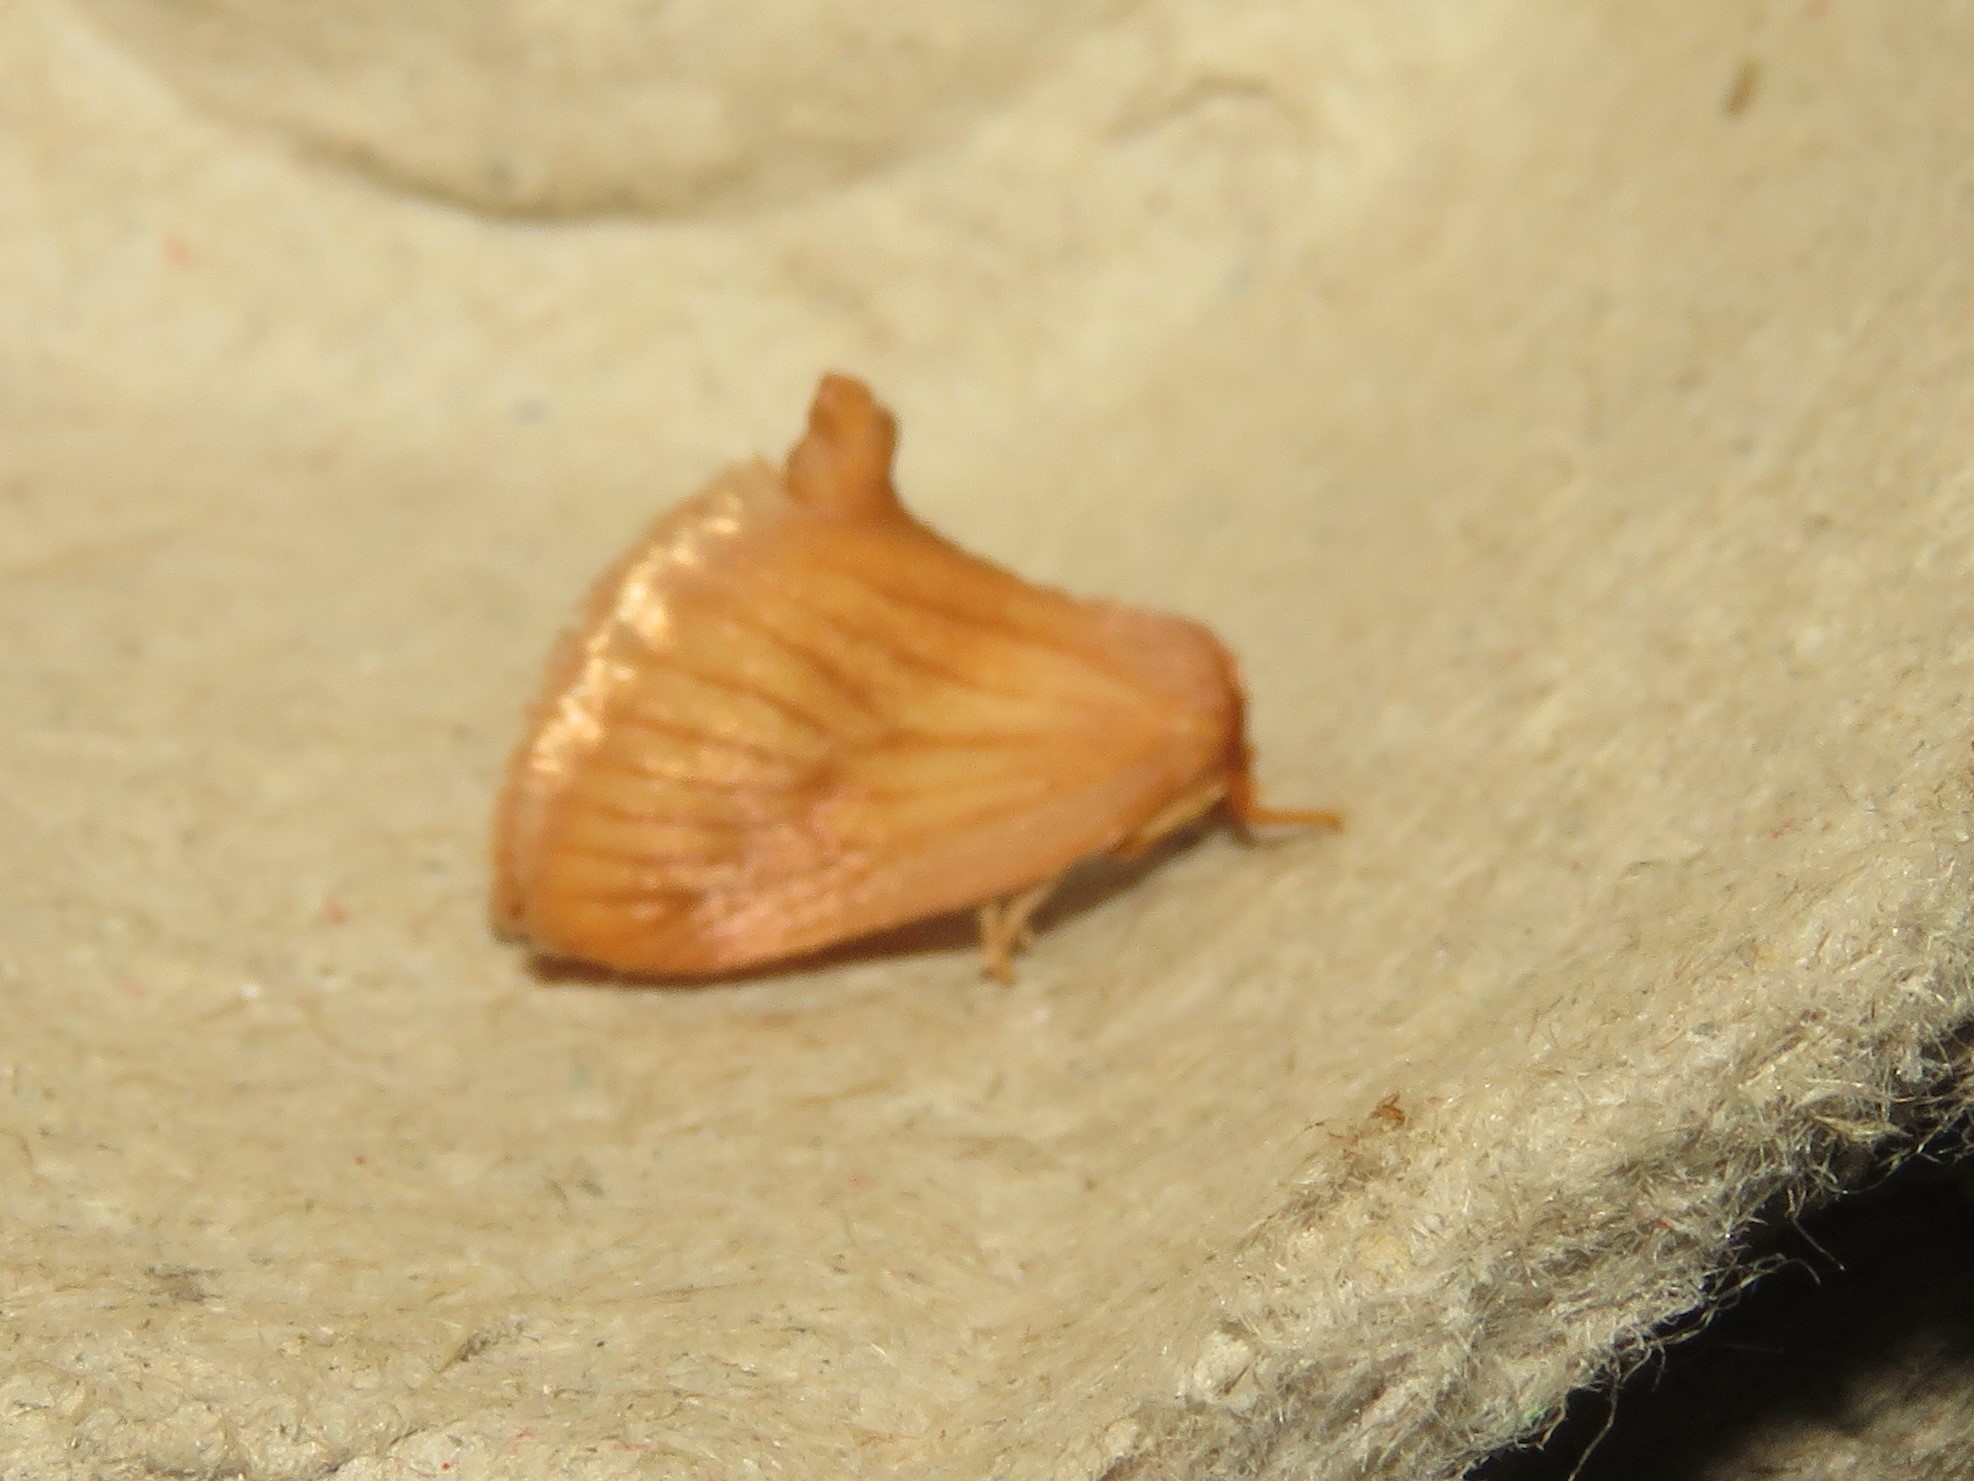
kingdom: Animalia
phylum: Arthropoda
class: Insecta
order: Lepidoptera
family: Limacodidae
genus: Tortricidia
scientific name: Tortricidia testacea
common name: Early button slug moth
